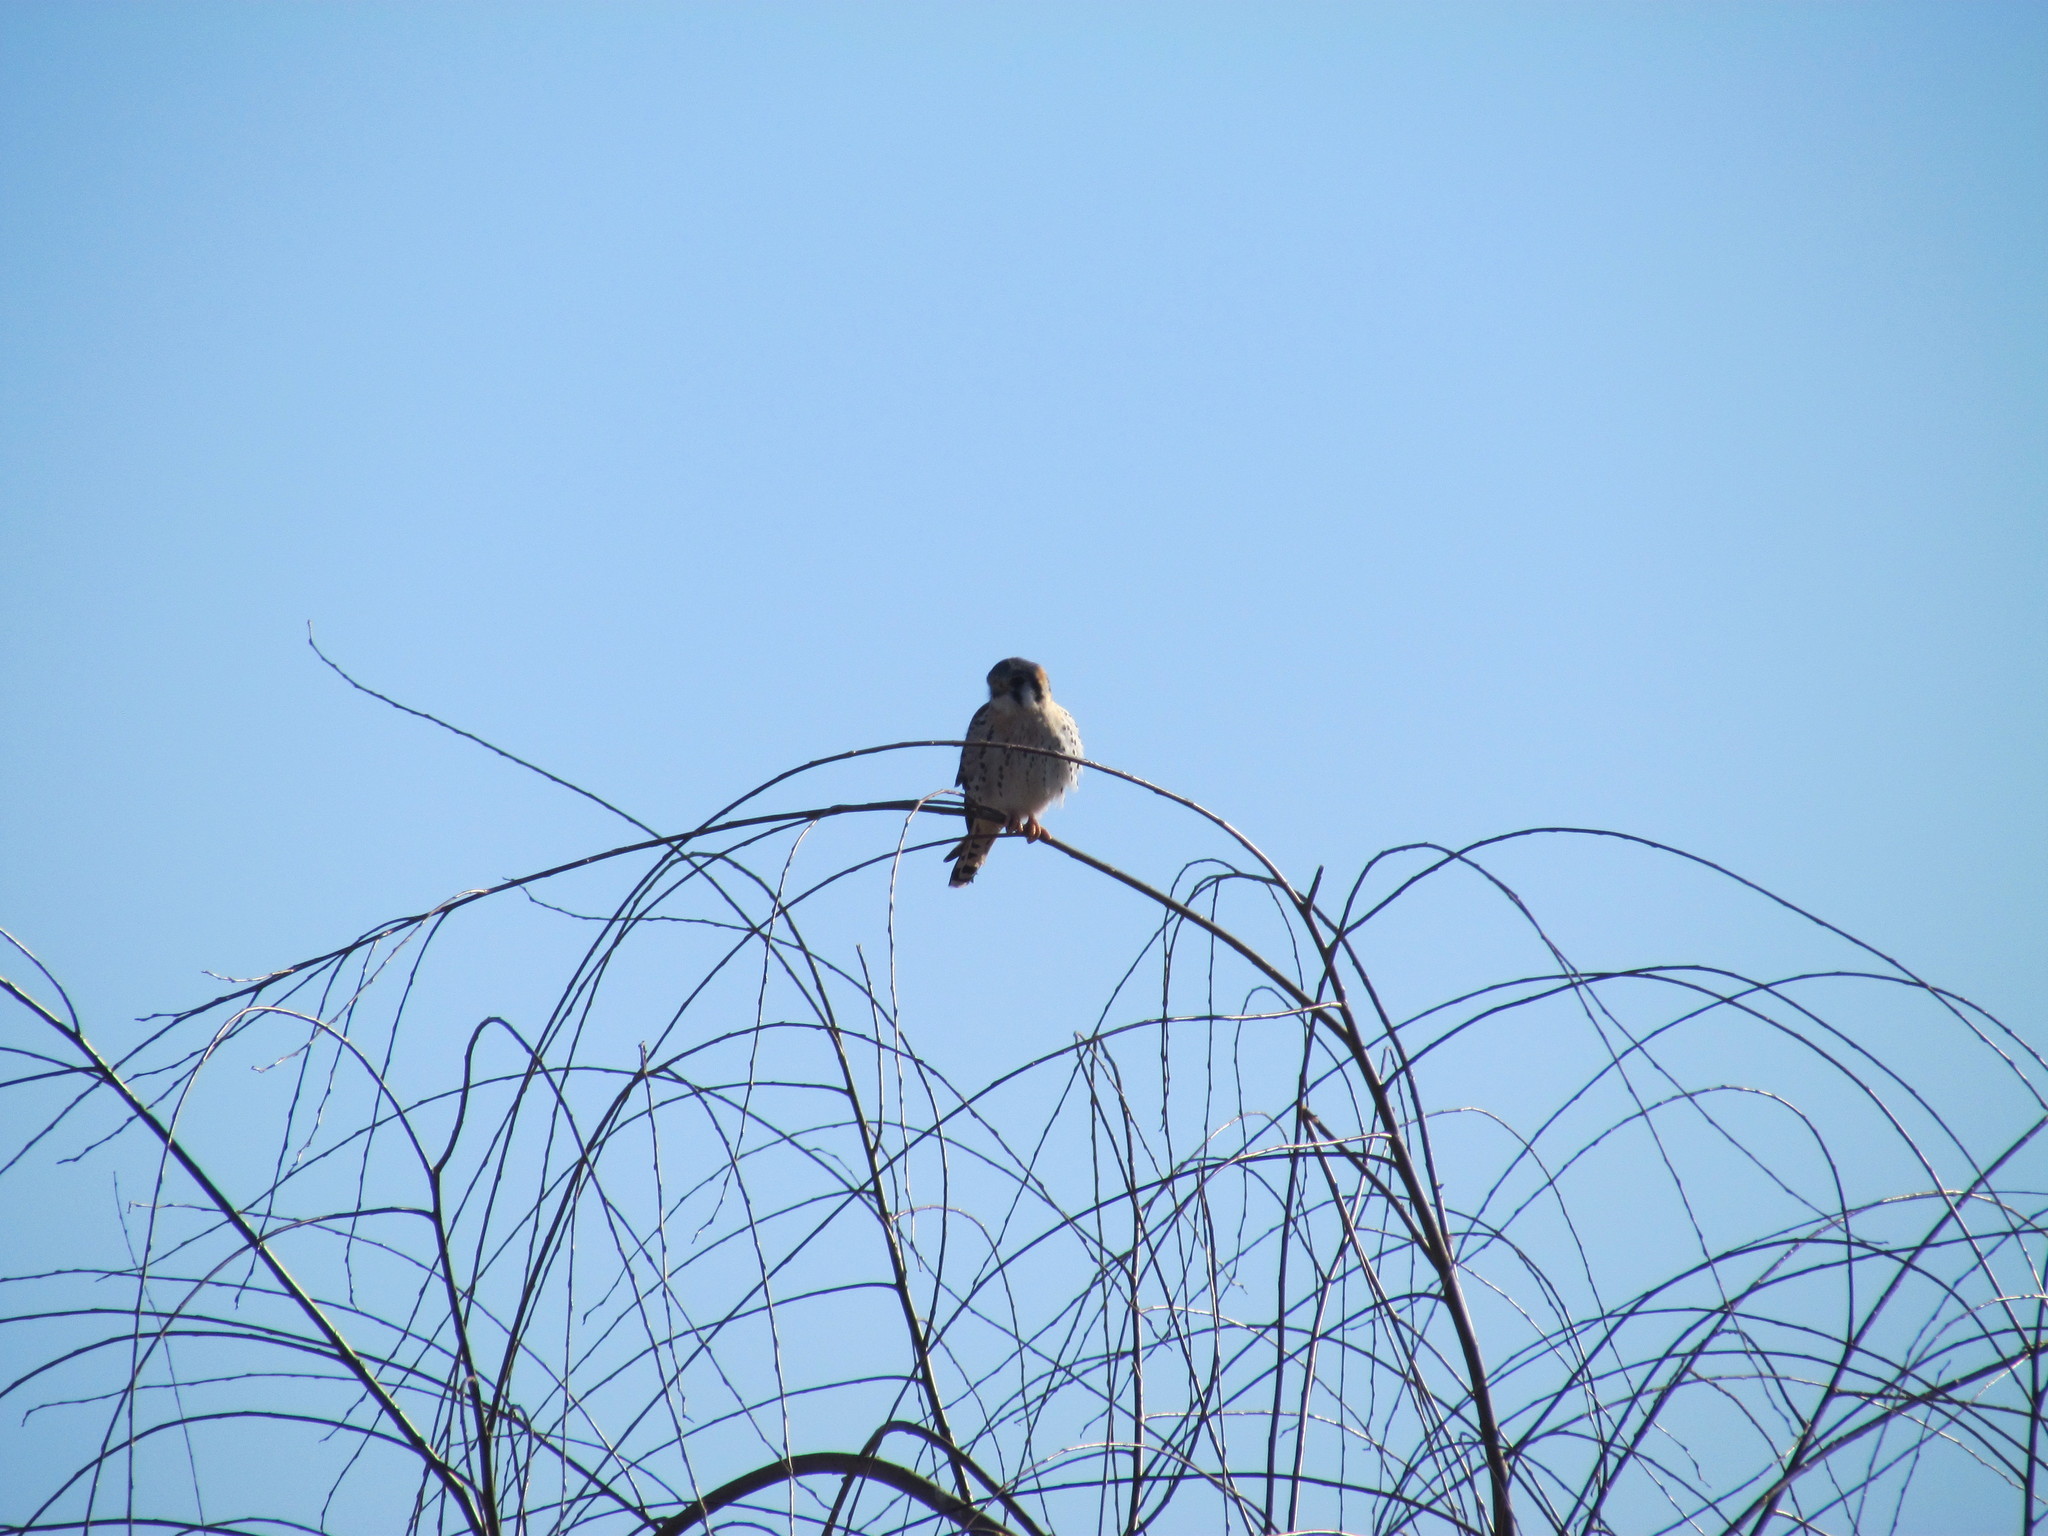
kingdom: Animalia
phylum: Chordata
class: Aves
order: Falconiformes
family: Falconidae
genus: Falco
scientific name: Falco sparverius
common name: American kestrel
